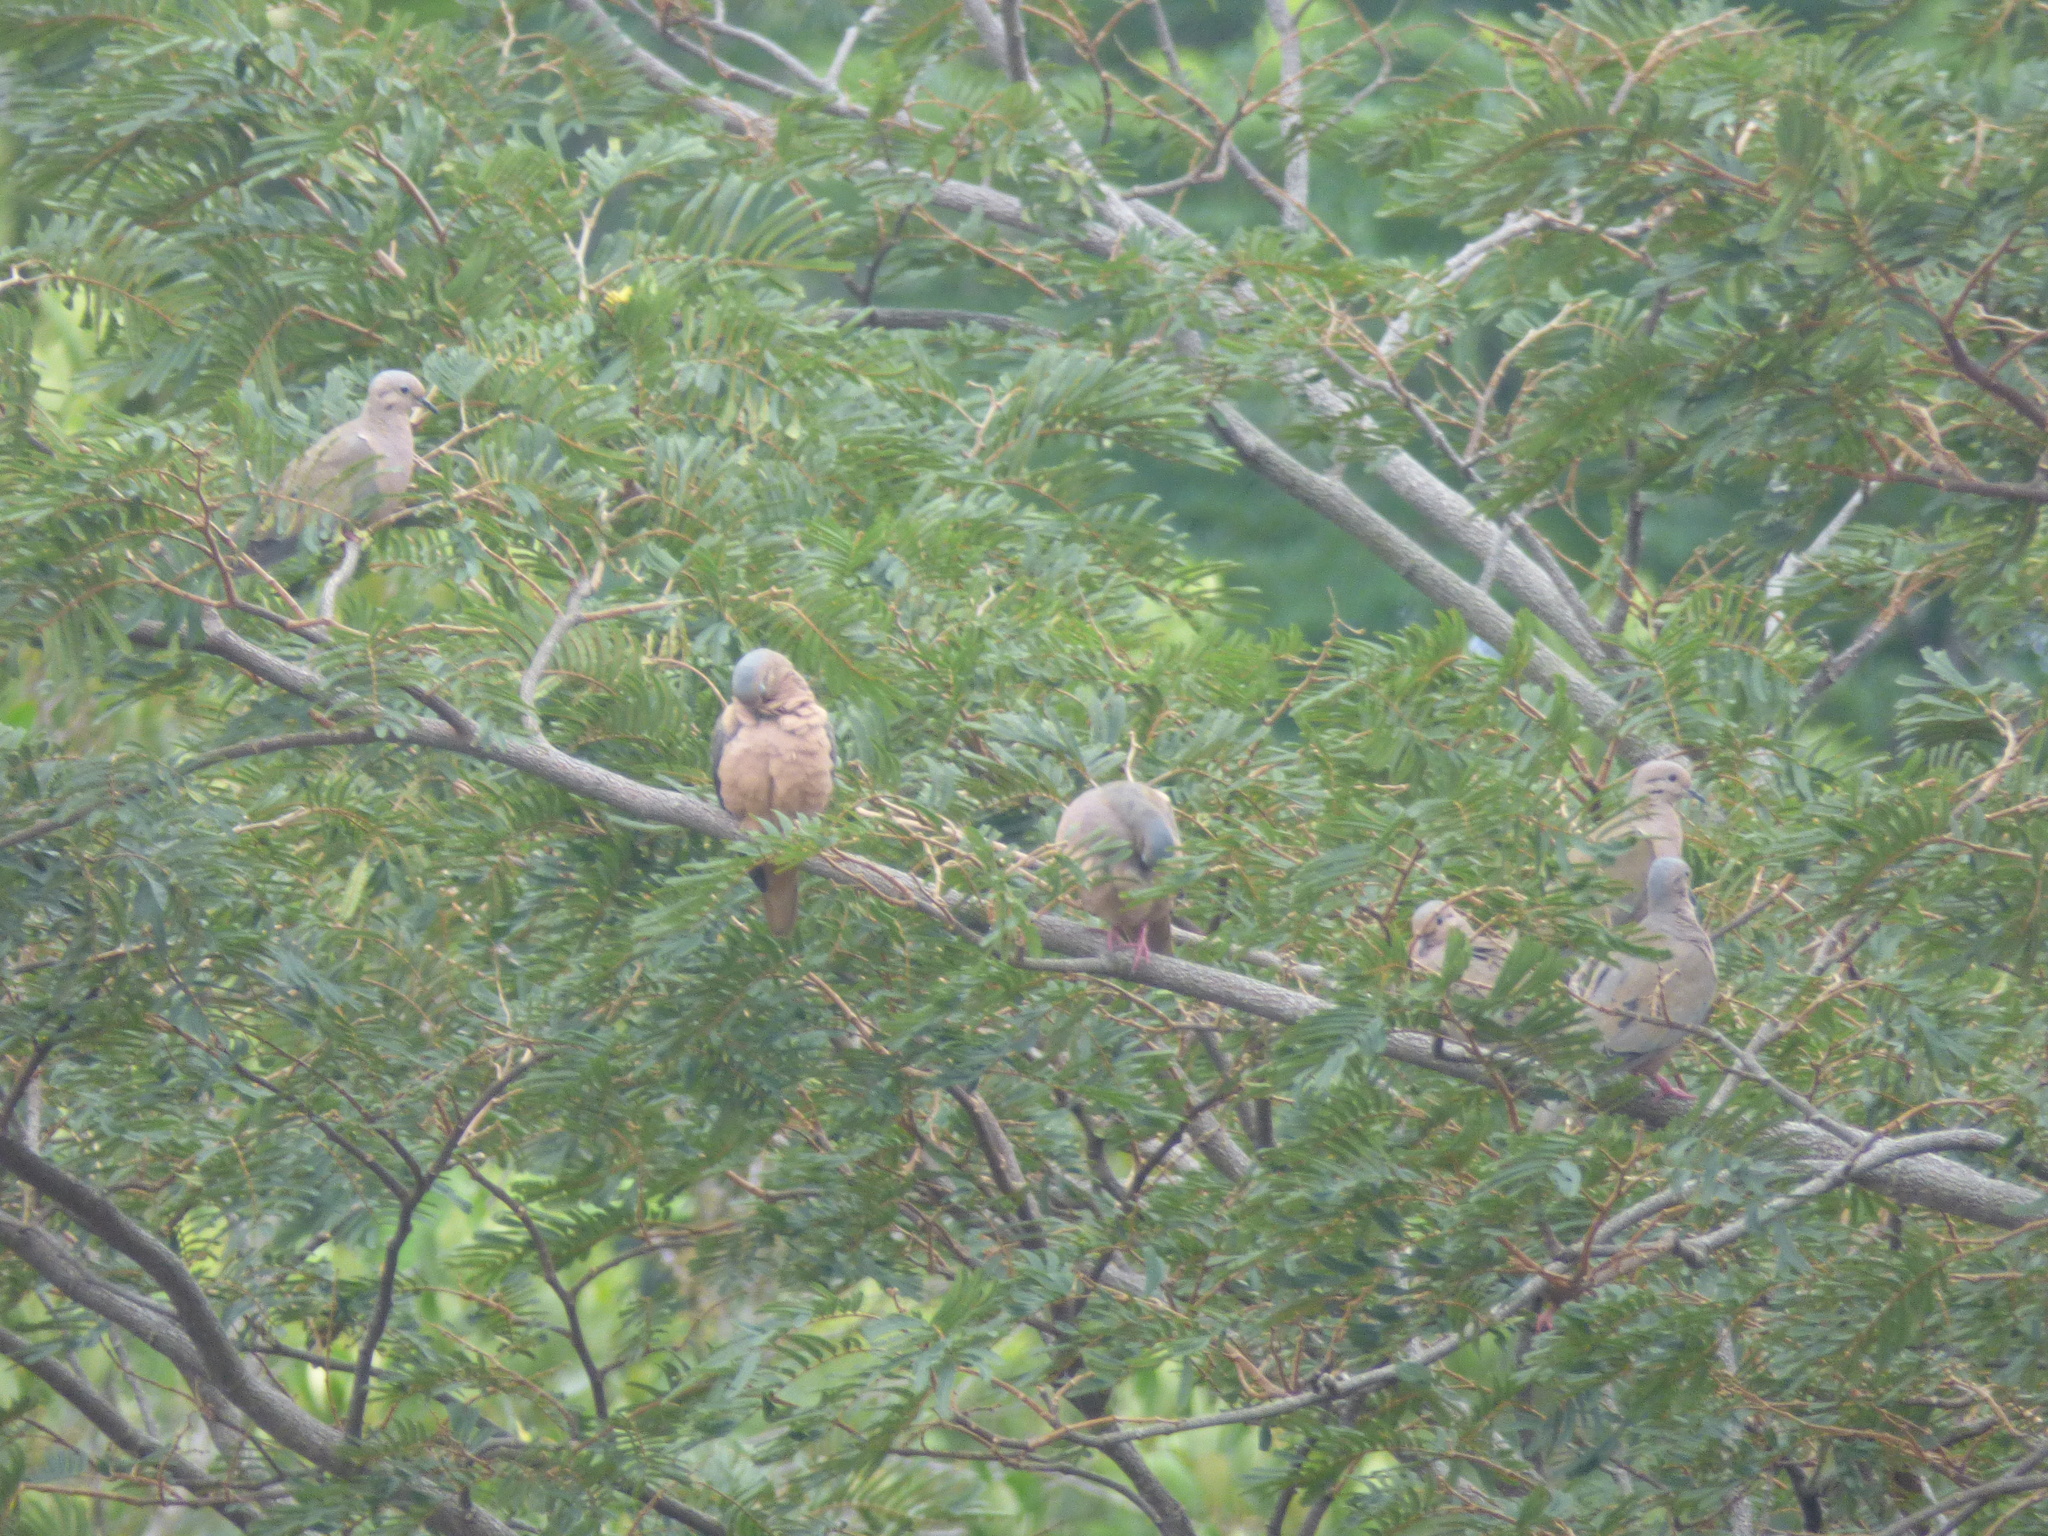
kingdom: Animalia
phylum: Chordata
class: Aves
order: Columbiformes
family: Columbidae
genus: Zenaida
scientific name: Zenaida auriculata
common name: Eared dove
